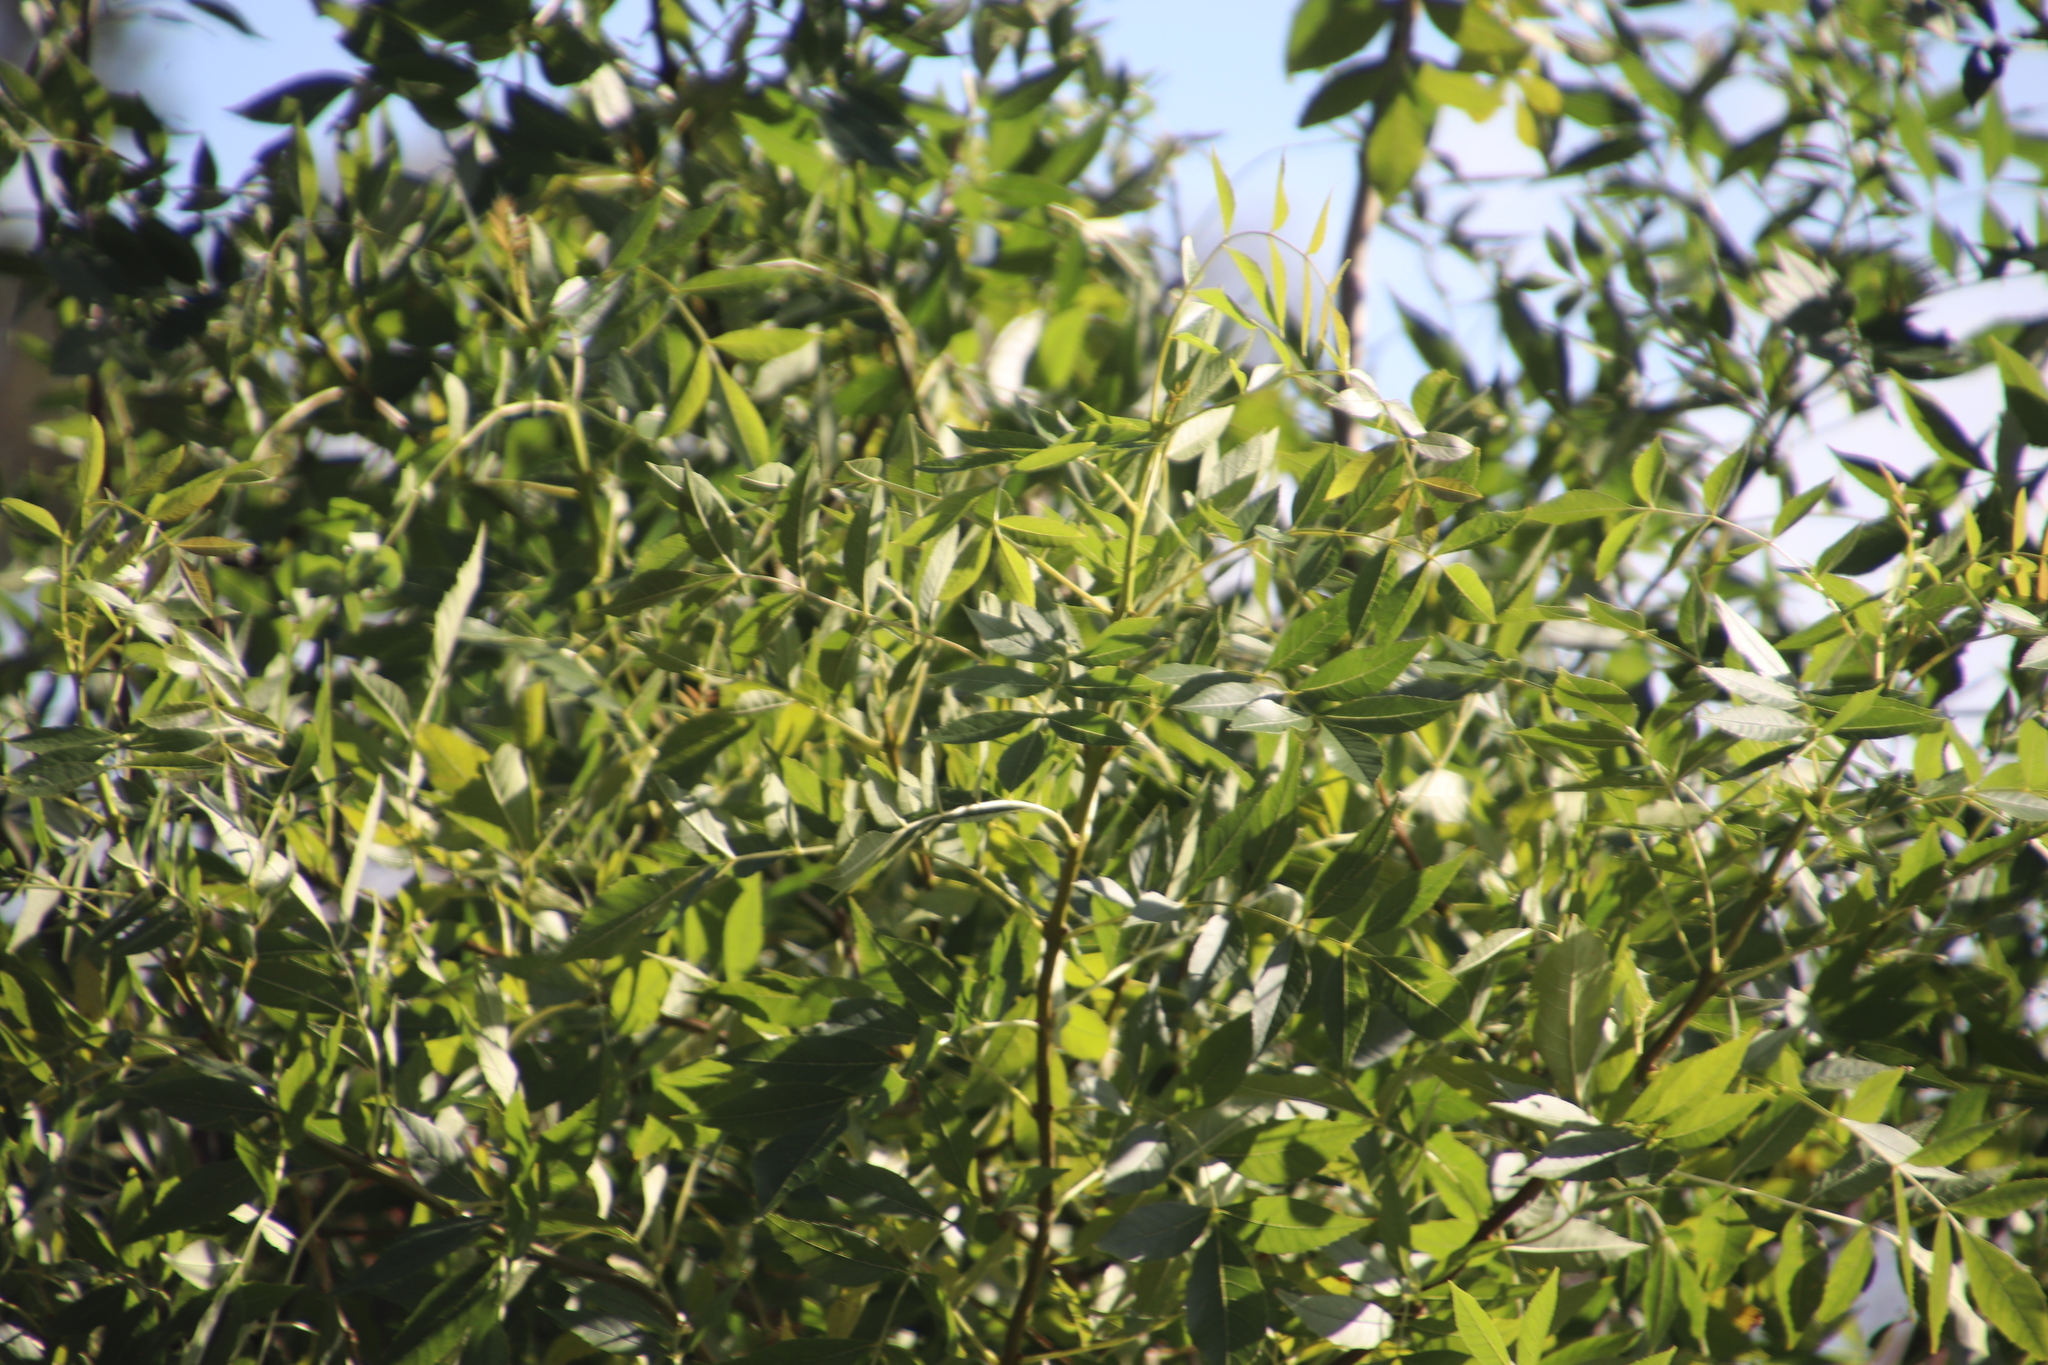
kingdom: Plantae
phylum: Tracheophyta
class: Magnoliopsida
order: Lamiales
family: Oleaceae
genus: Fraxinus
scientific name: Fraxinus pennsylvanica
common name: Green ash
